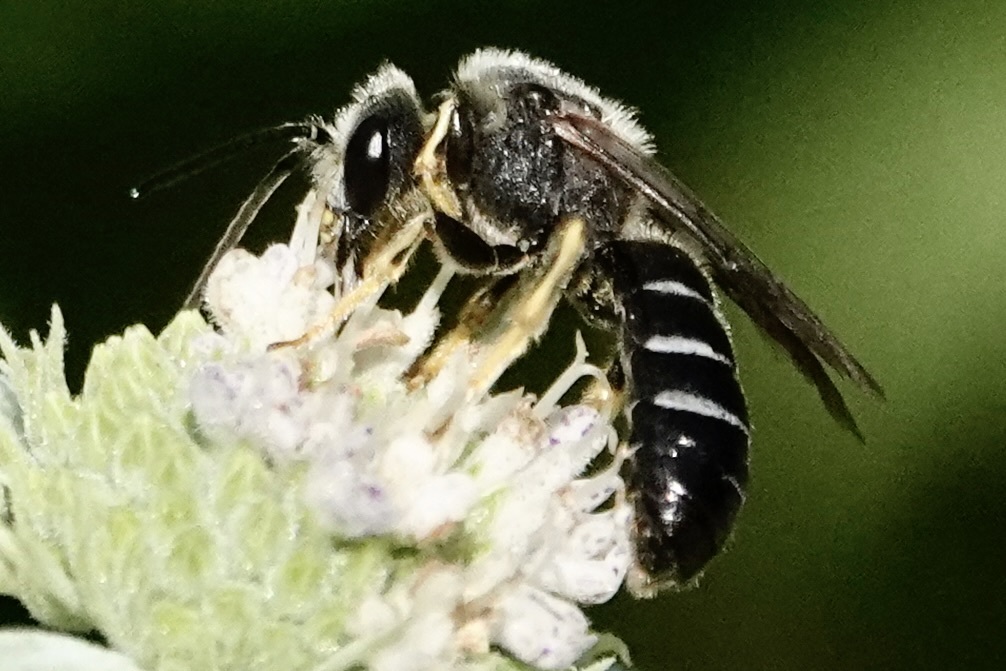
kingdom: Animalia
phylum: Arthropoda
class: Insecta
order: Hymenoptera
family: Halictidae
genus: Halictus
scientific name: Halictus rubicundus
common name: Orange-legged furrow bee
